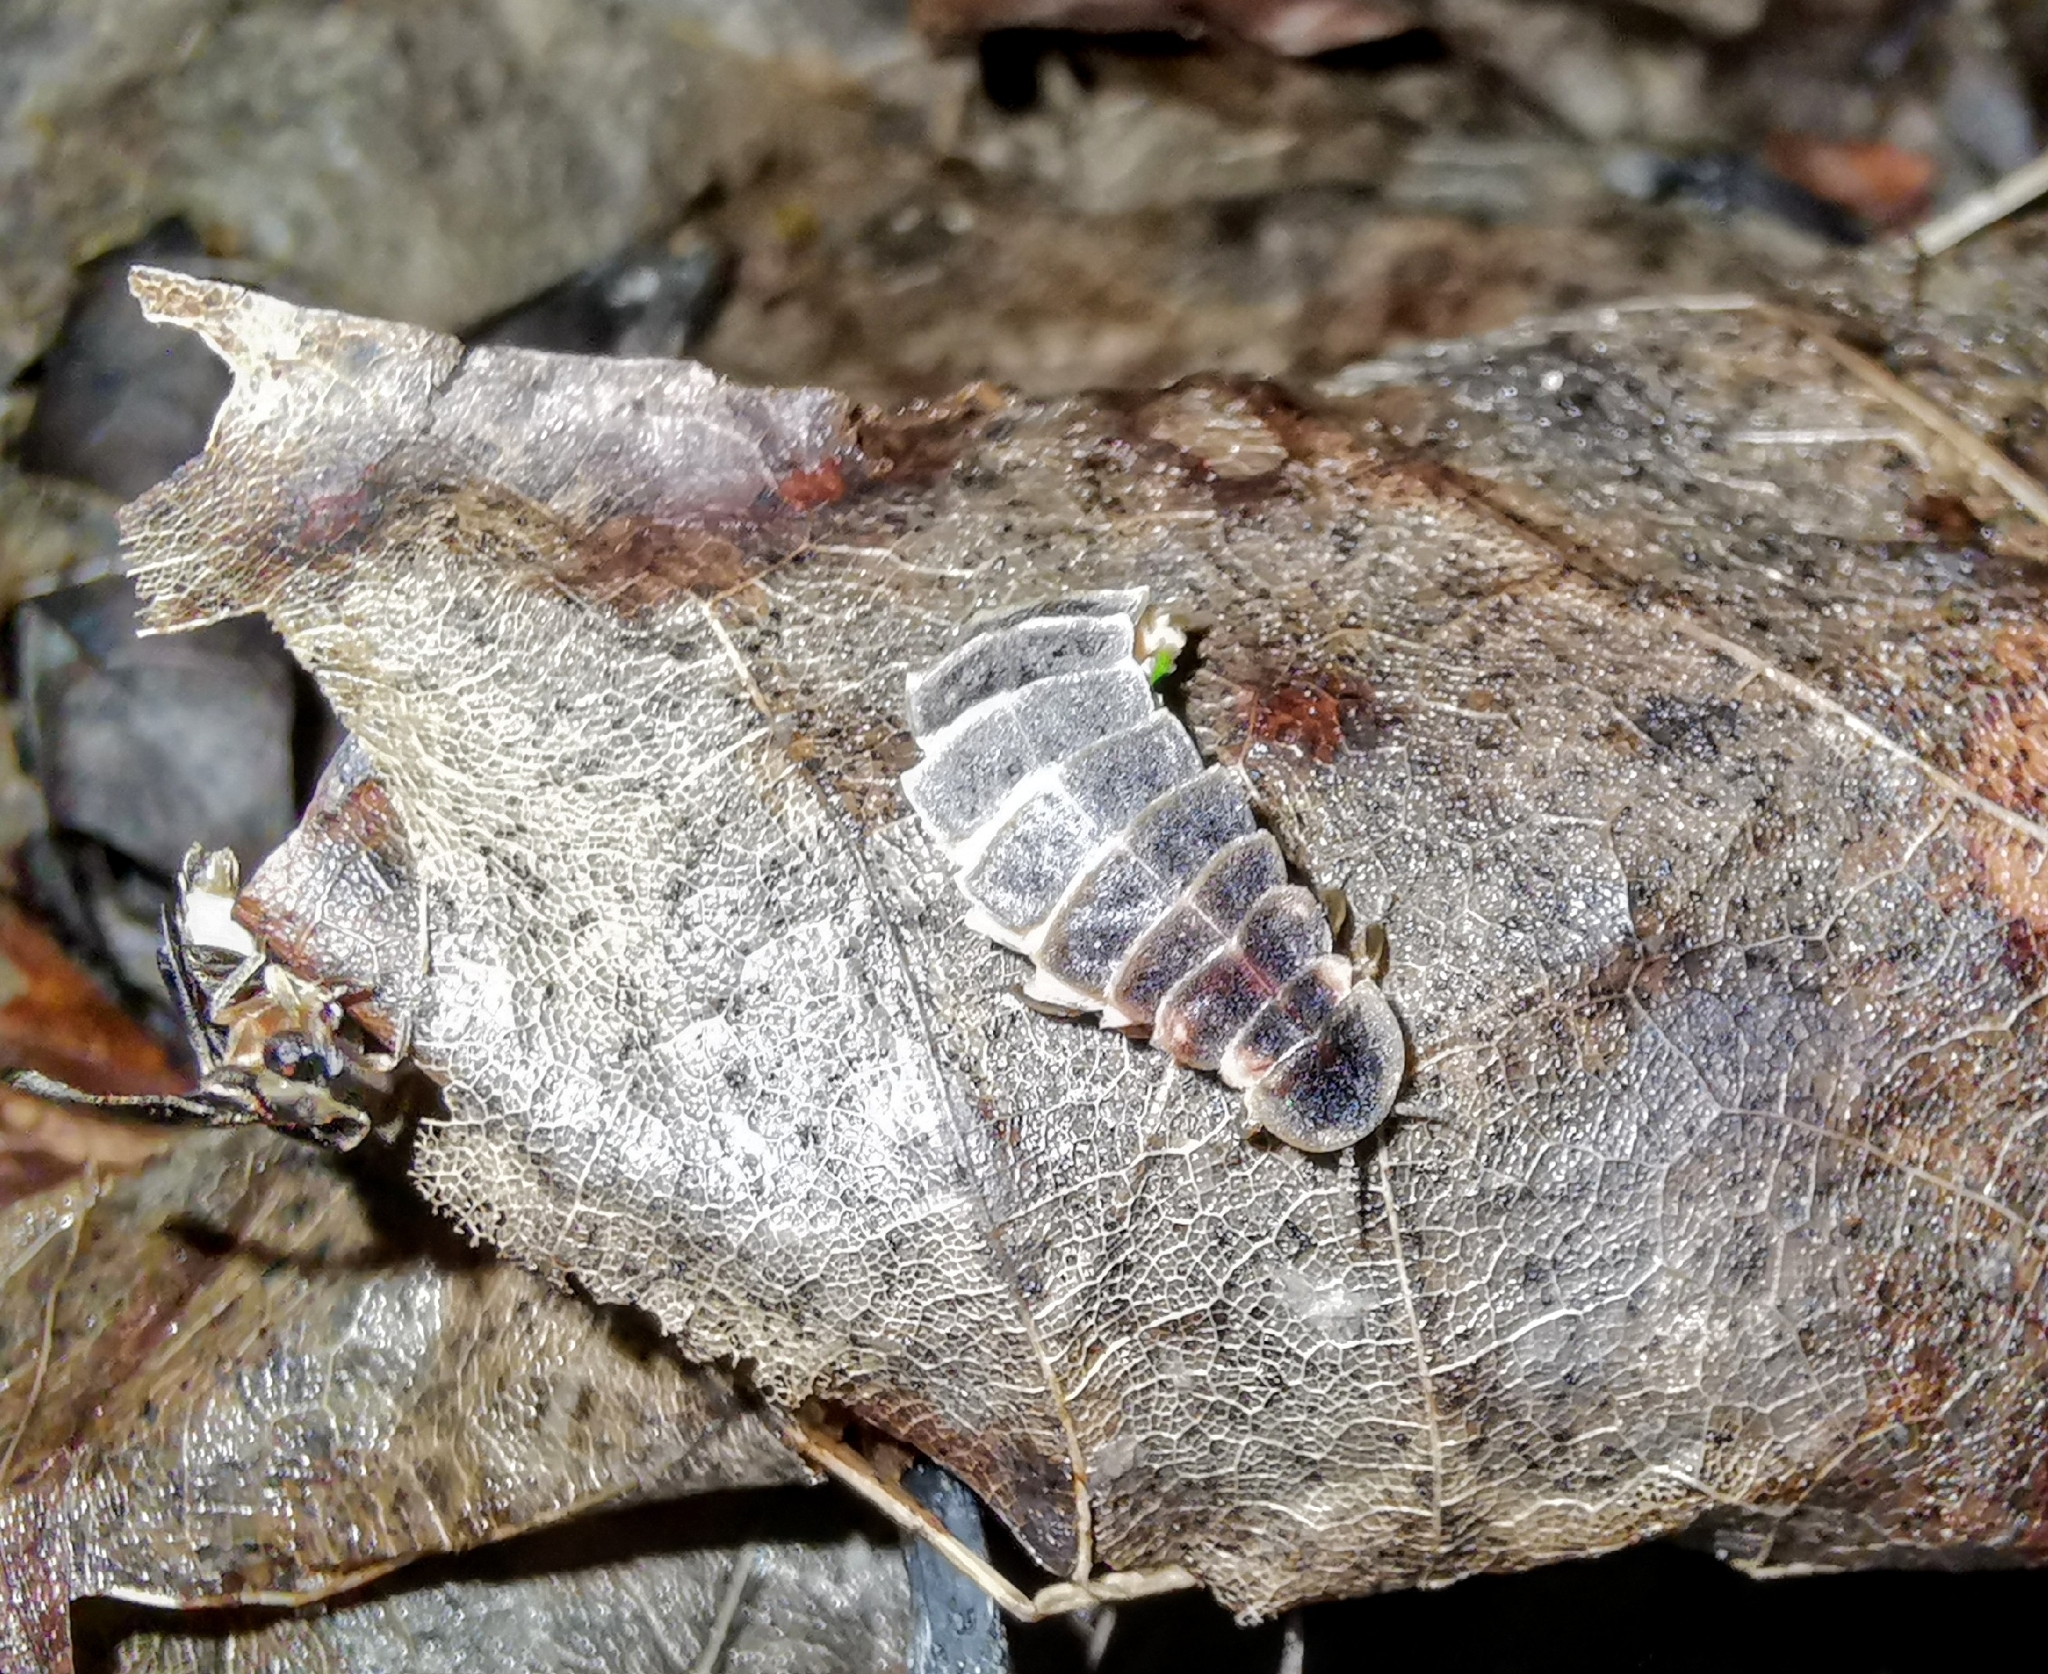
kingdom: Animalia
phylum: Arthropoda
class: Insecta
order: Coleoptera
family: Lampyridae
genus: Lamprohiza
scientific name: Lamprohiza splendidula
